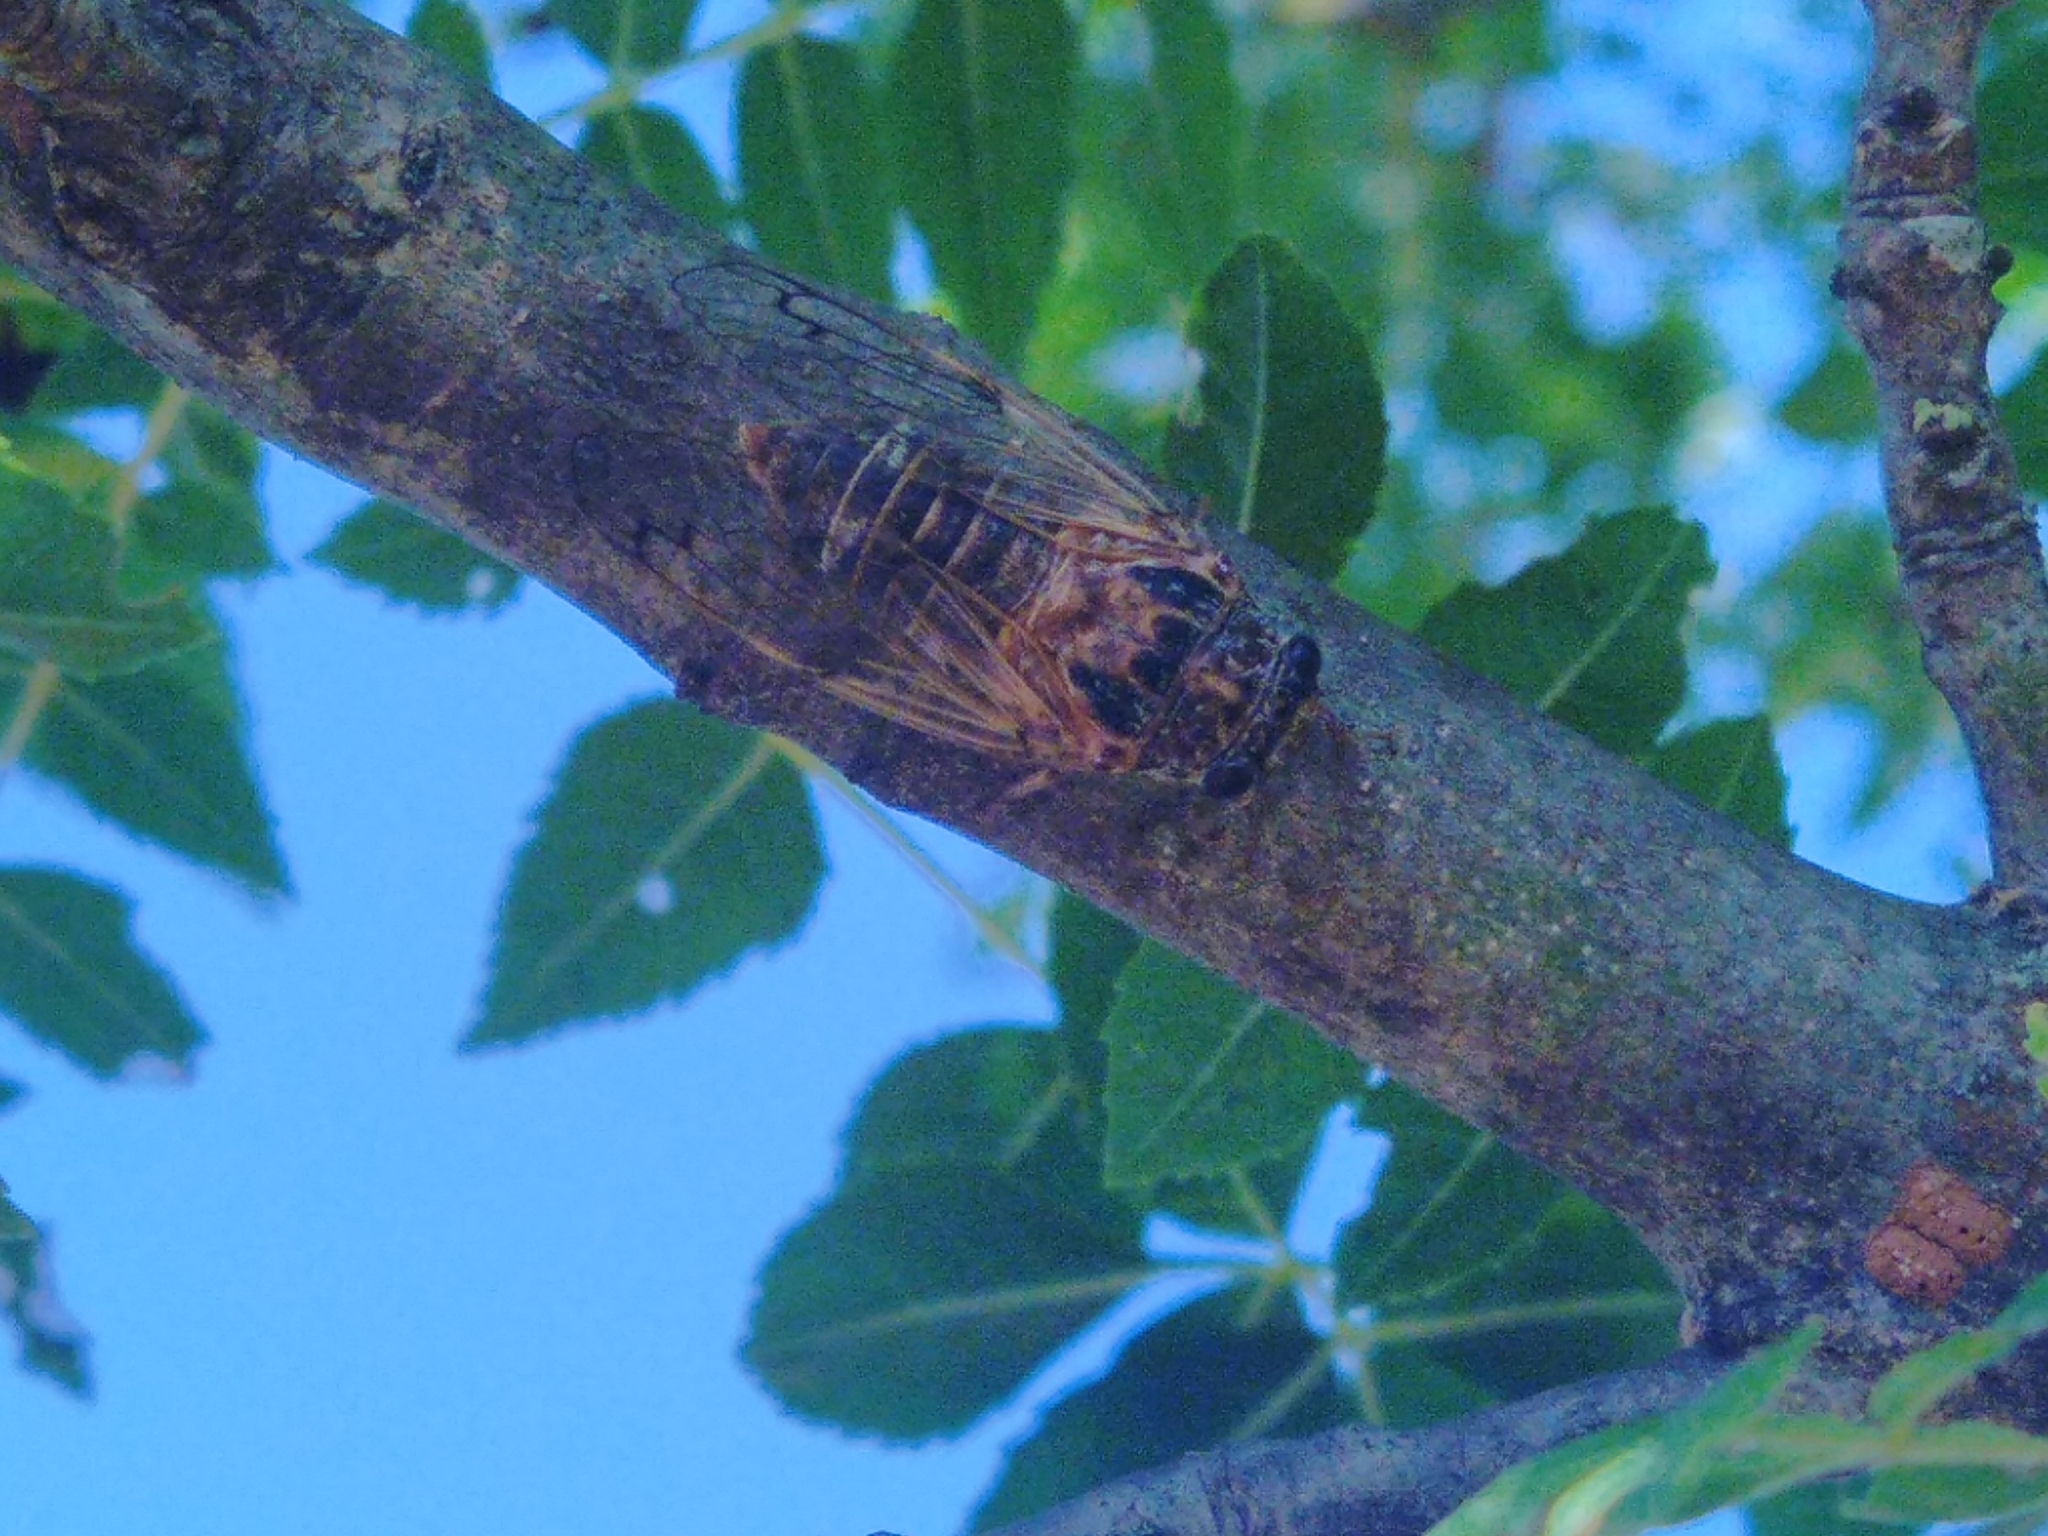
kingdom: Animalia
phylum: Arthropoda
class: Insecta
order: Hemiptera
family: Cicadidae
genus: Cicadatra
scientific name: Cicadatra atra
